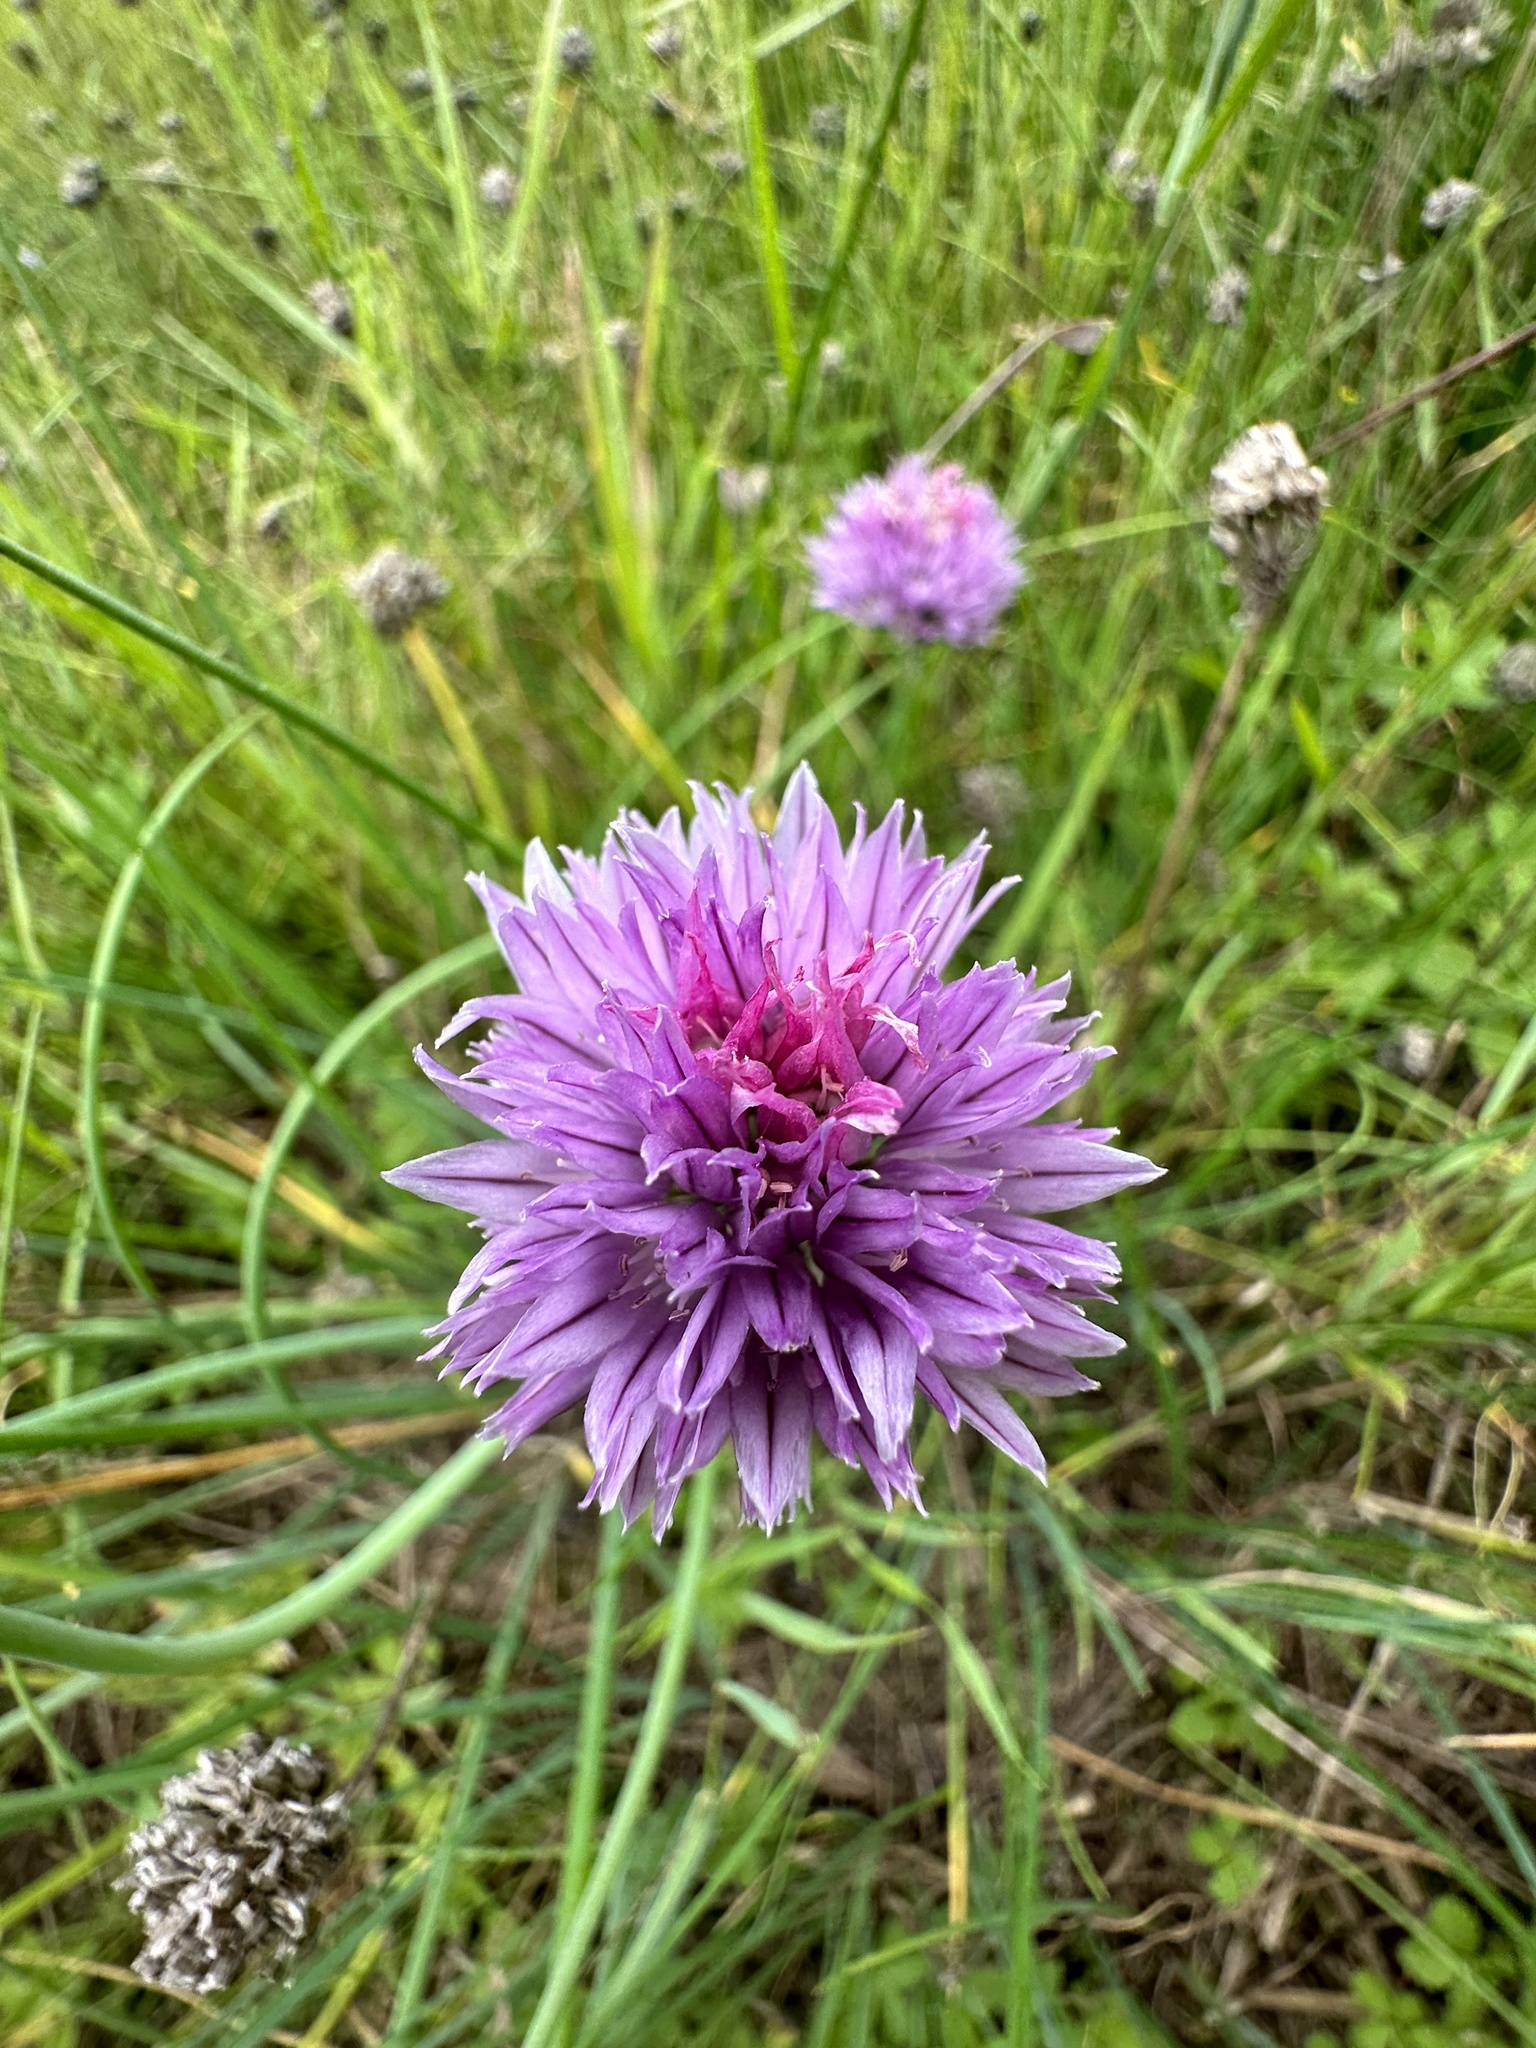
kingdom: Plantae
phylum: Tracheophyta
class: Liliopsida
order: Asparagales
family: Amaryllidaceae
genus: Allium
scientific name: Allium schoenoprasum
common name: Chives
